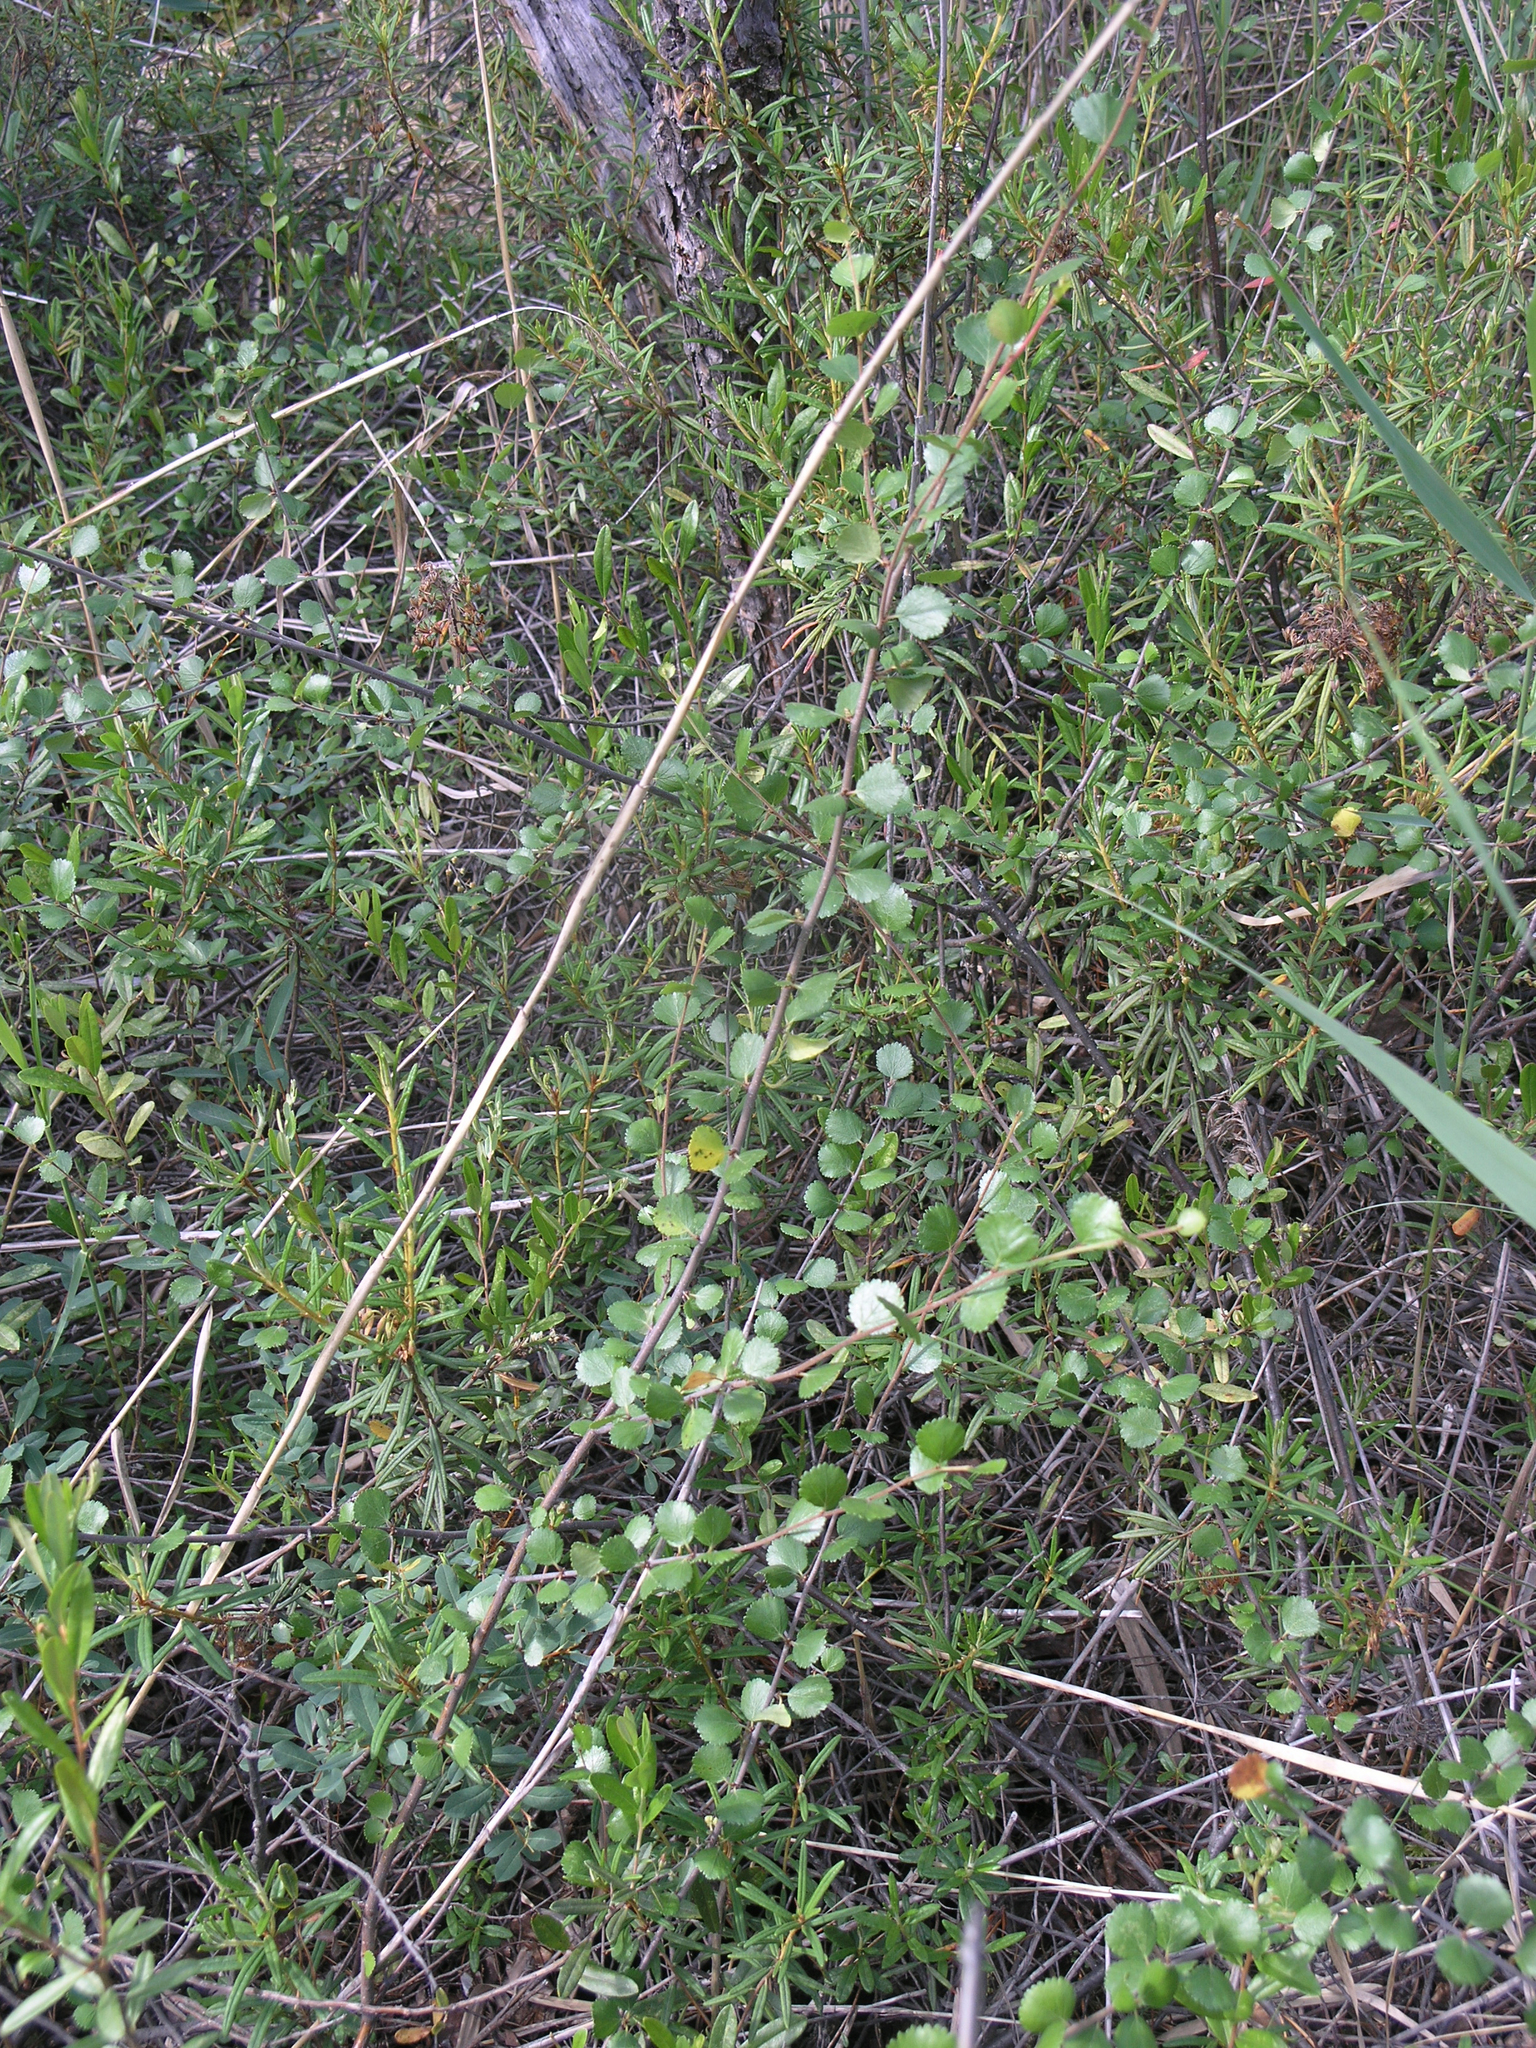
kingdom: Plantae
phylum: Tracheophyta
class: Magnoliopsida
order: Fagales
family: Betulaceae
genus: Betula
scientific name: Betula nana
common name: Arctic dwarf birch
